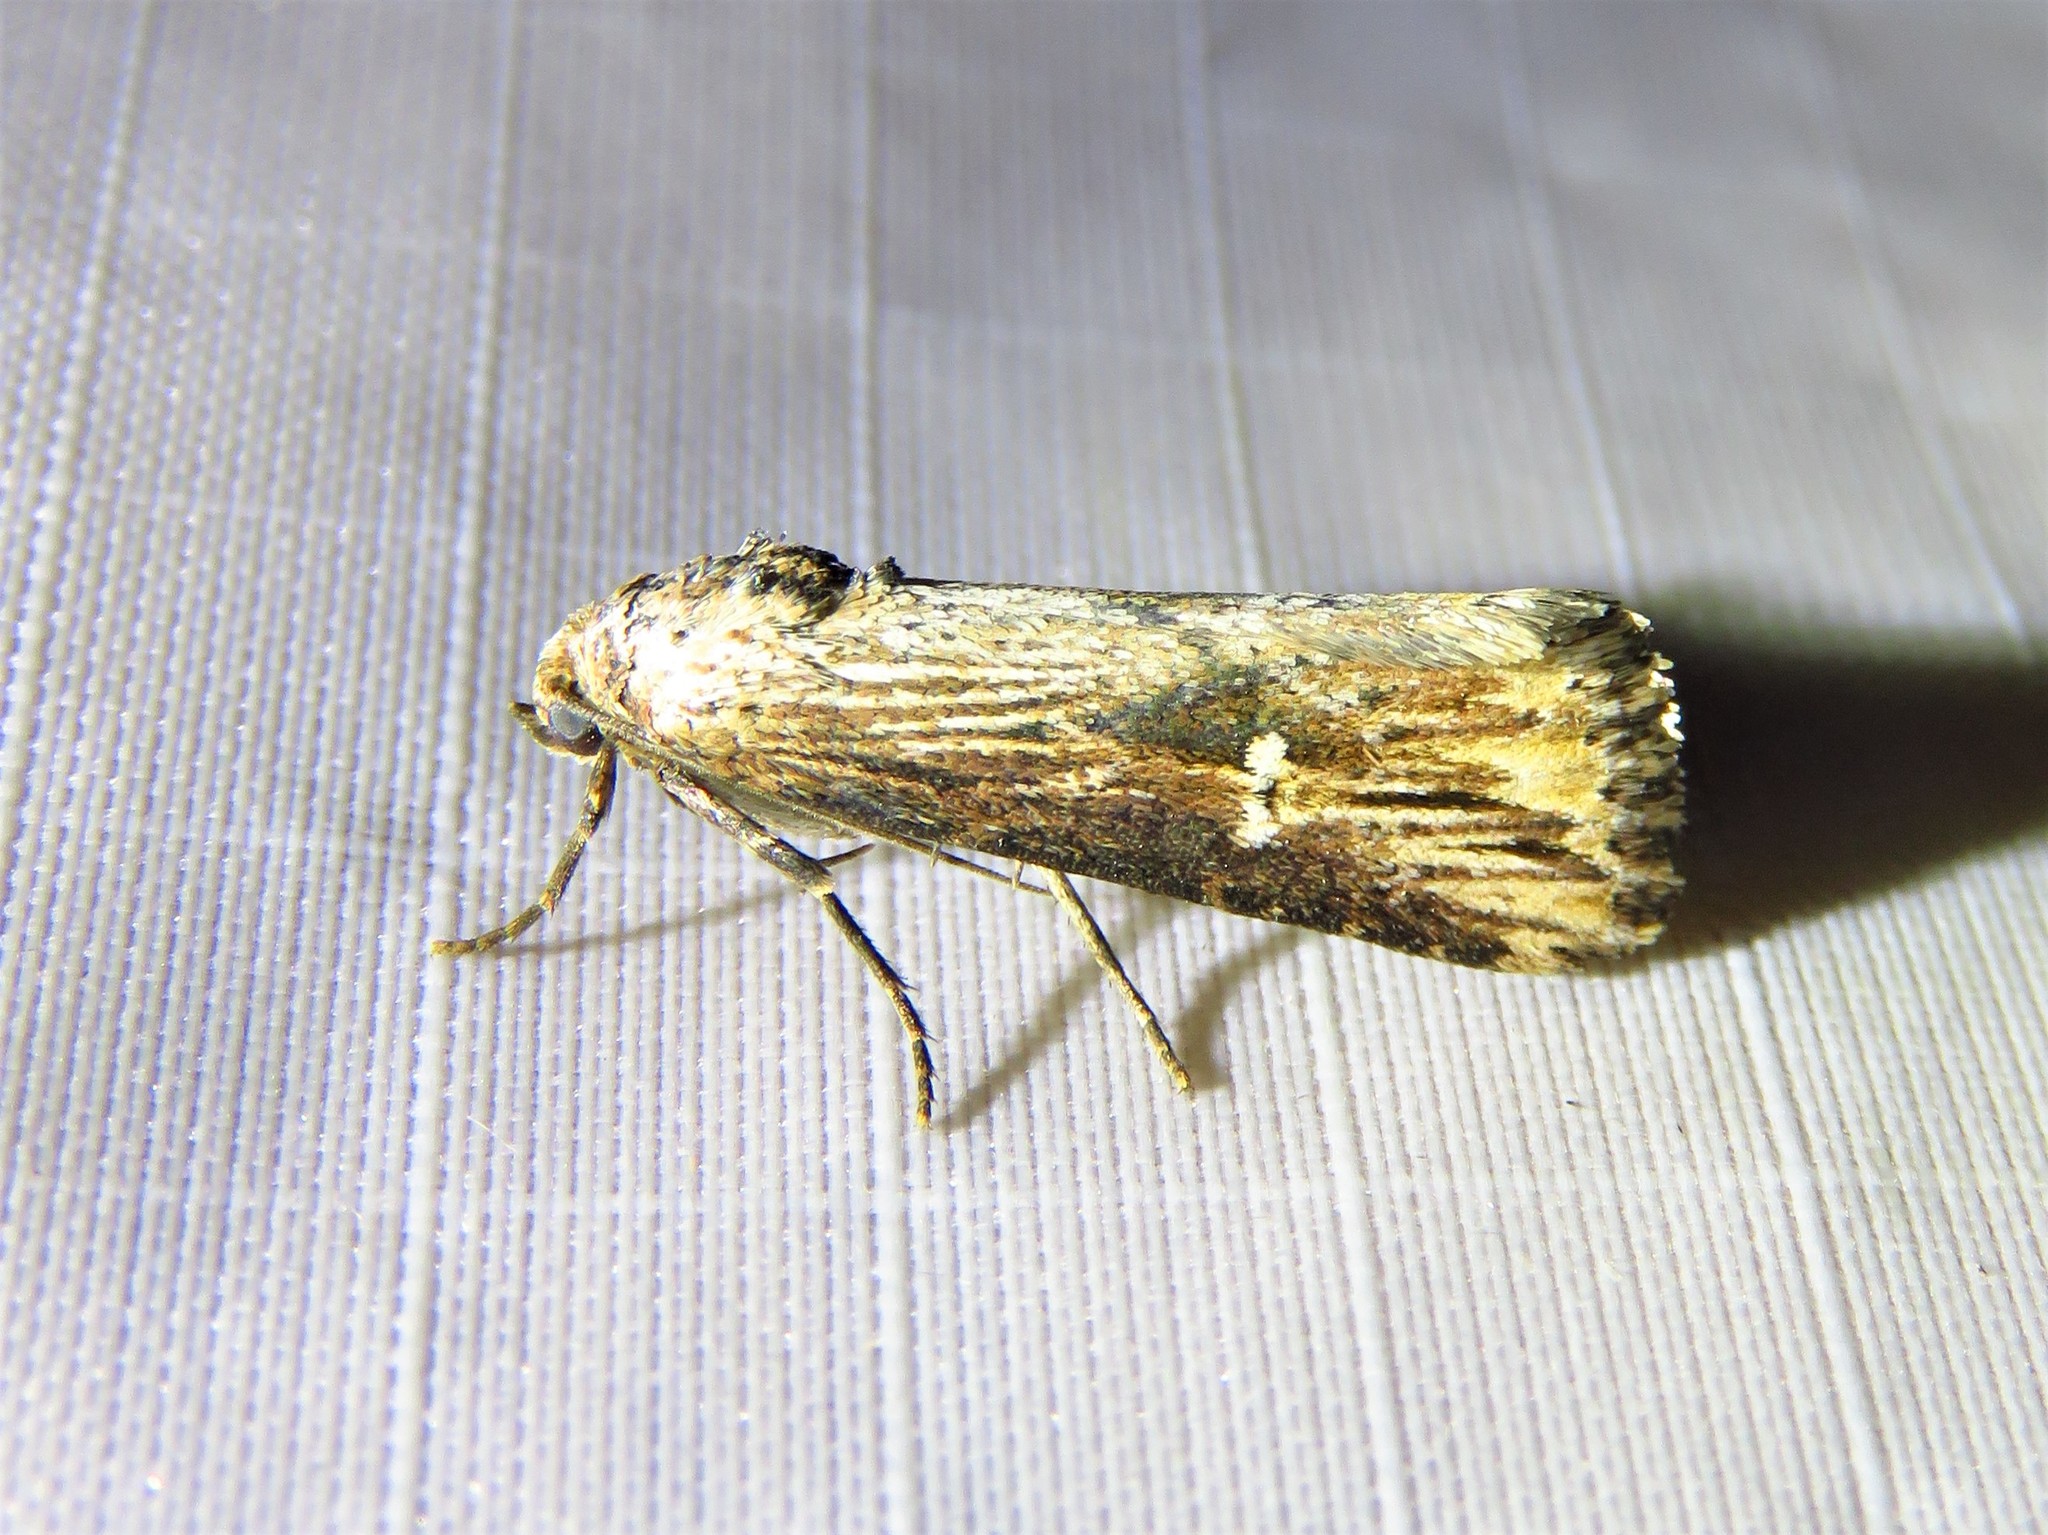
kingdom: Animalia
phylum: Arthropoda
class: Insecta
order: Lepidoptera
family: Noctuidae
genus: Crambodes
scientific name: Crambodes talidiformis
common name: Verbena moth
